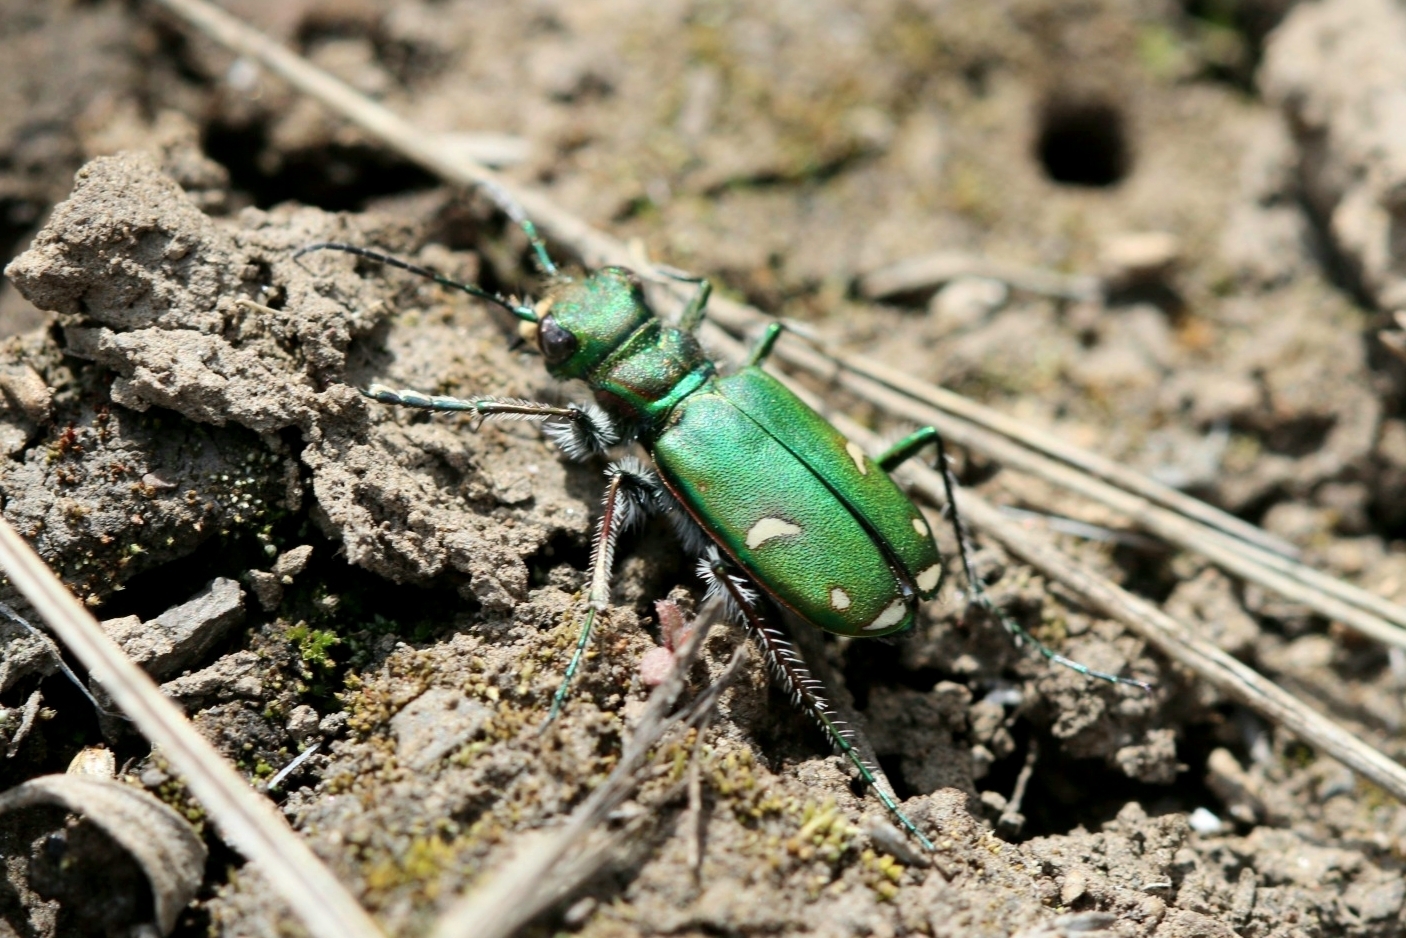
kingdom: Animalia
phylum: Arthropoda
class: Insecta
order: Coleoptera
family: Carabidae
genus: Cicindela
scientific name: Cicindela purpurea
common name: Cow path tiger beetle
